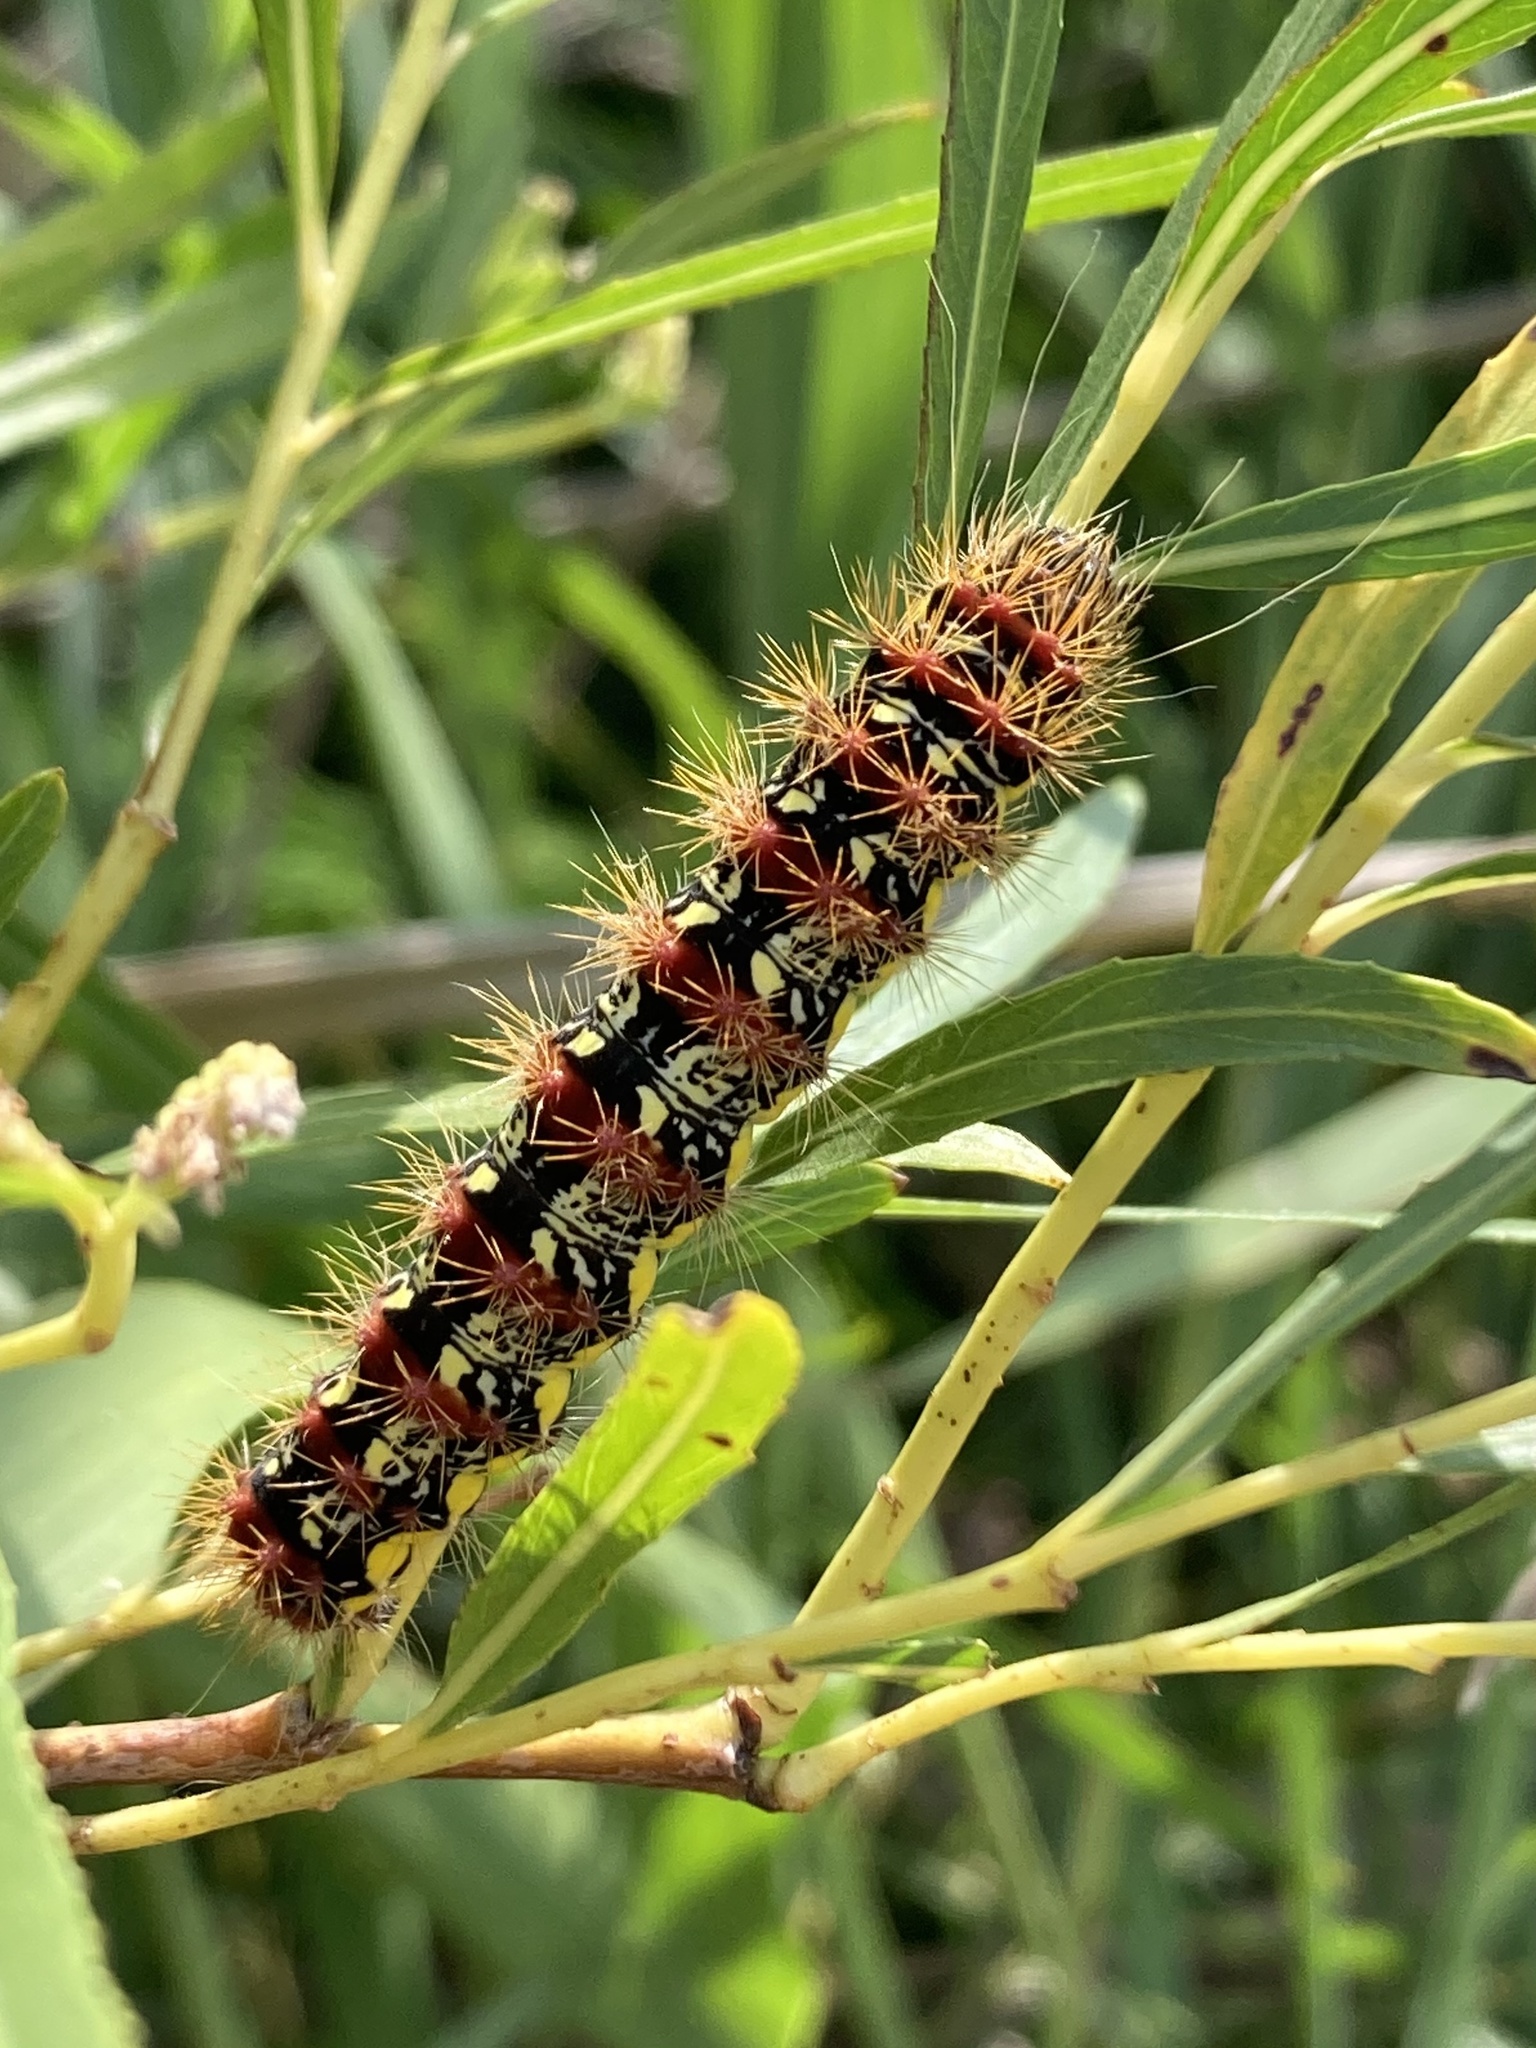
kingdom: Animalia
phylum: Arthropoda
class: Insecta
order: Lepidoptera
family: Noctuidae
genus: Acronicta
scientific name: Acronicta oblinita
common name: Smeared dagger
